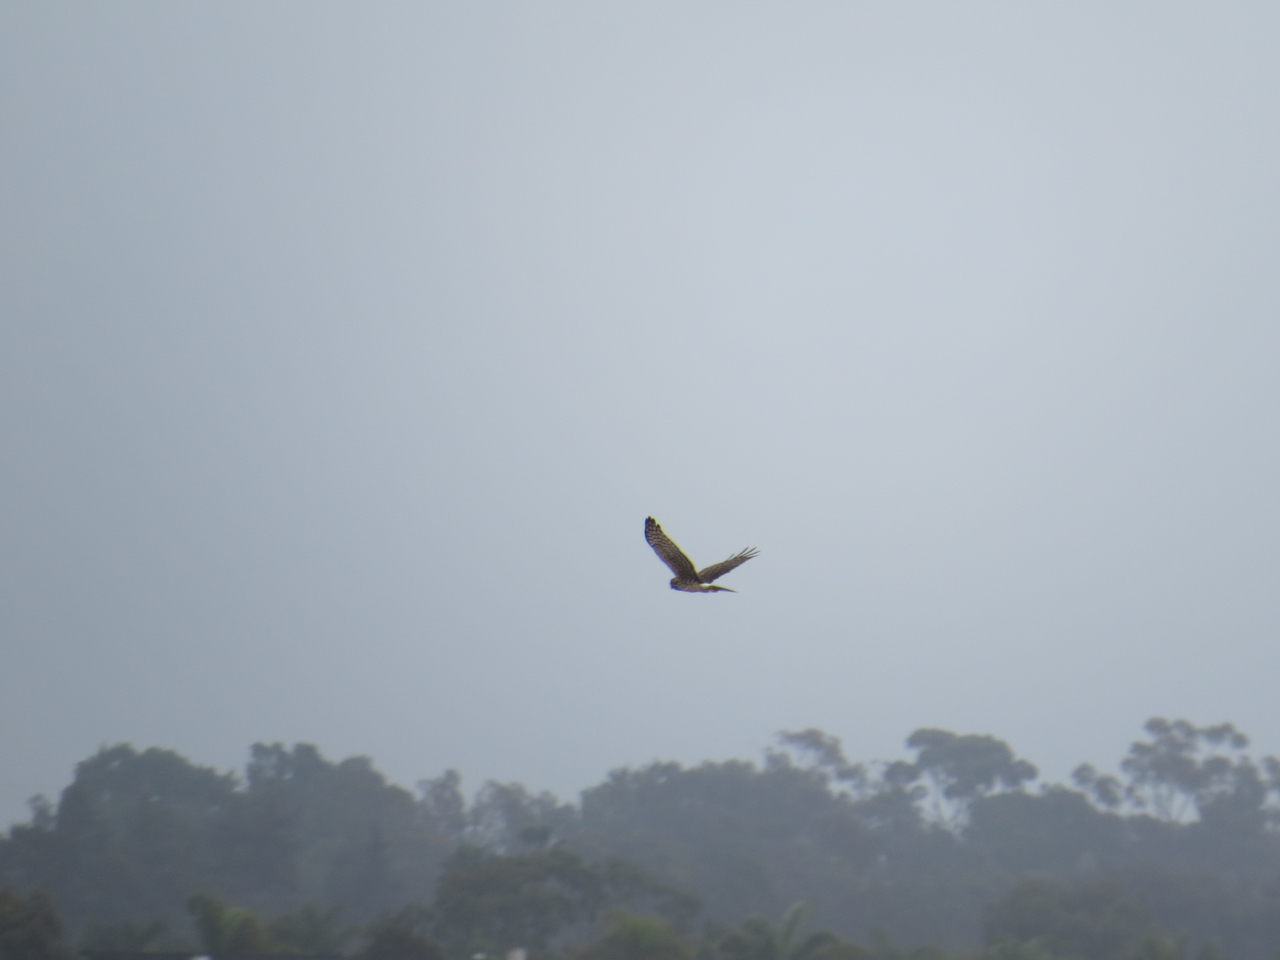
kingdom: Animalia
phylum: Chordata
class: Aves
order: Accipitriformes
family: Accipitridae
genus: Circus
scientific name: Circus cyaneus
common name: Hen harrier
